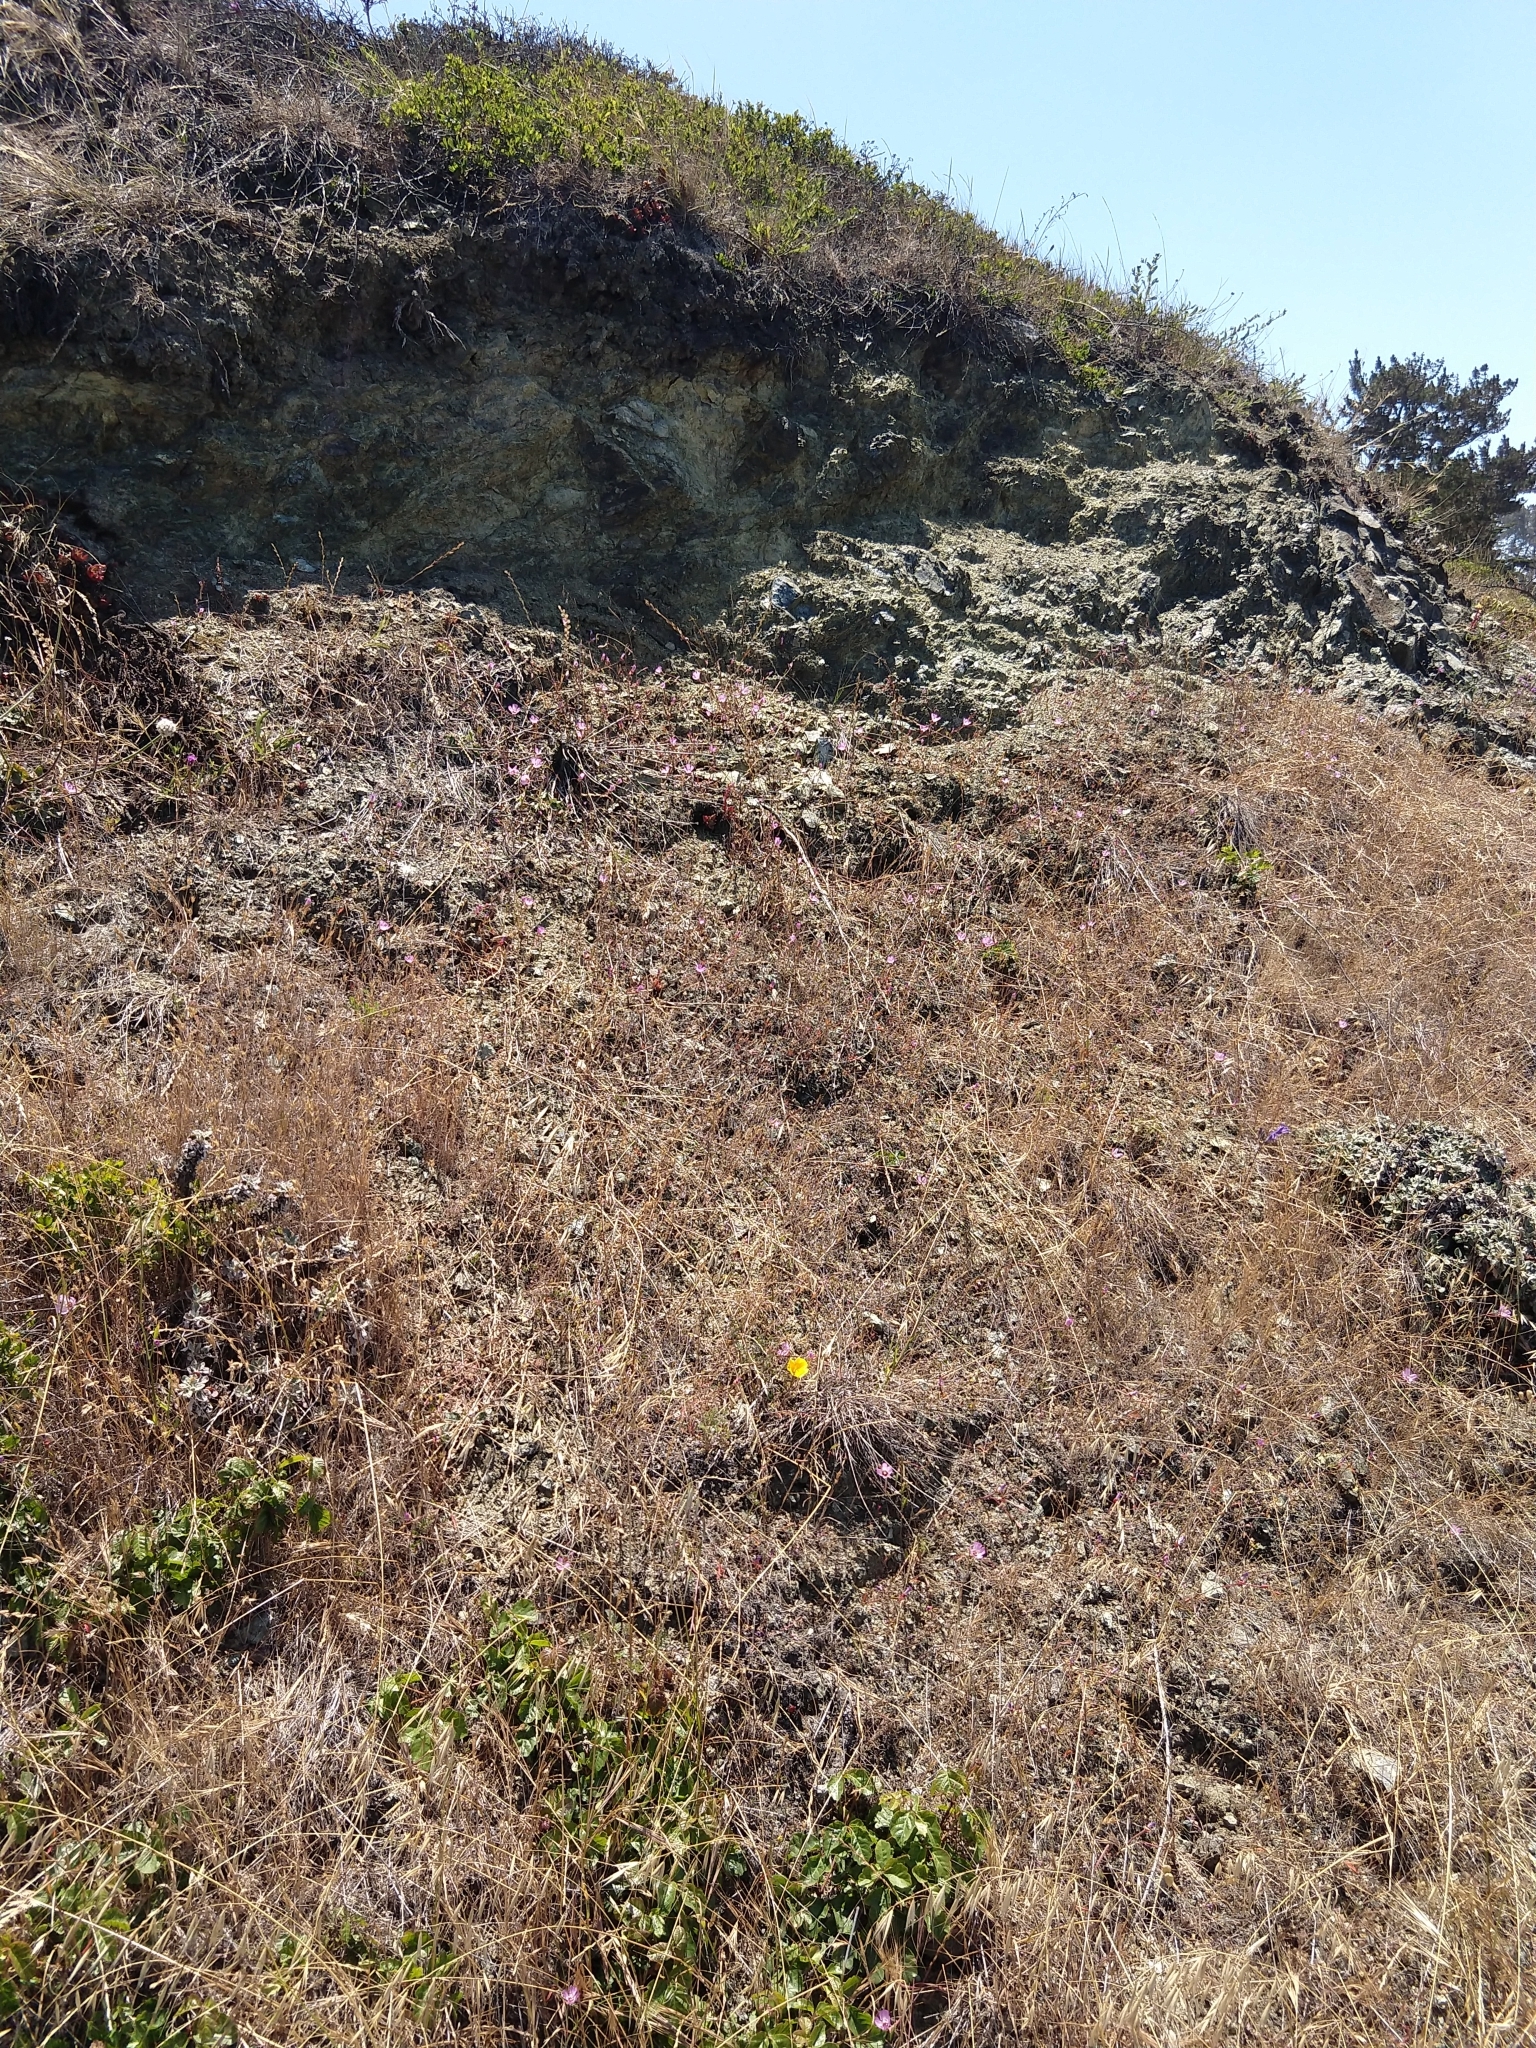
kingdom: Plantae
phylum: Tracheophyta
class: Magnoliopsida
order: Myrtales
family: Onagraceae
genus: Clarkia
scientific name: Clarkia franciscana
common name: Presidio clarkia
